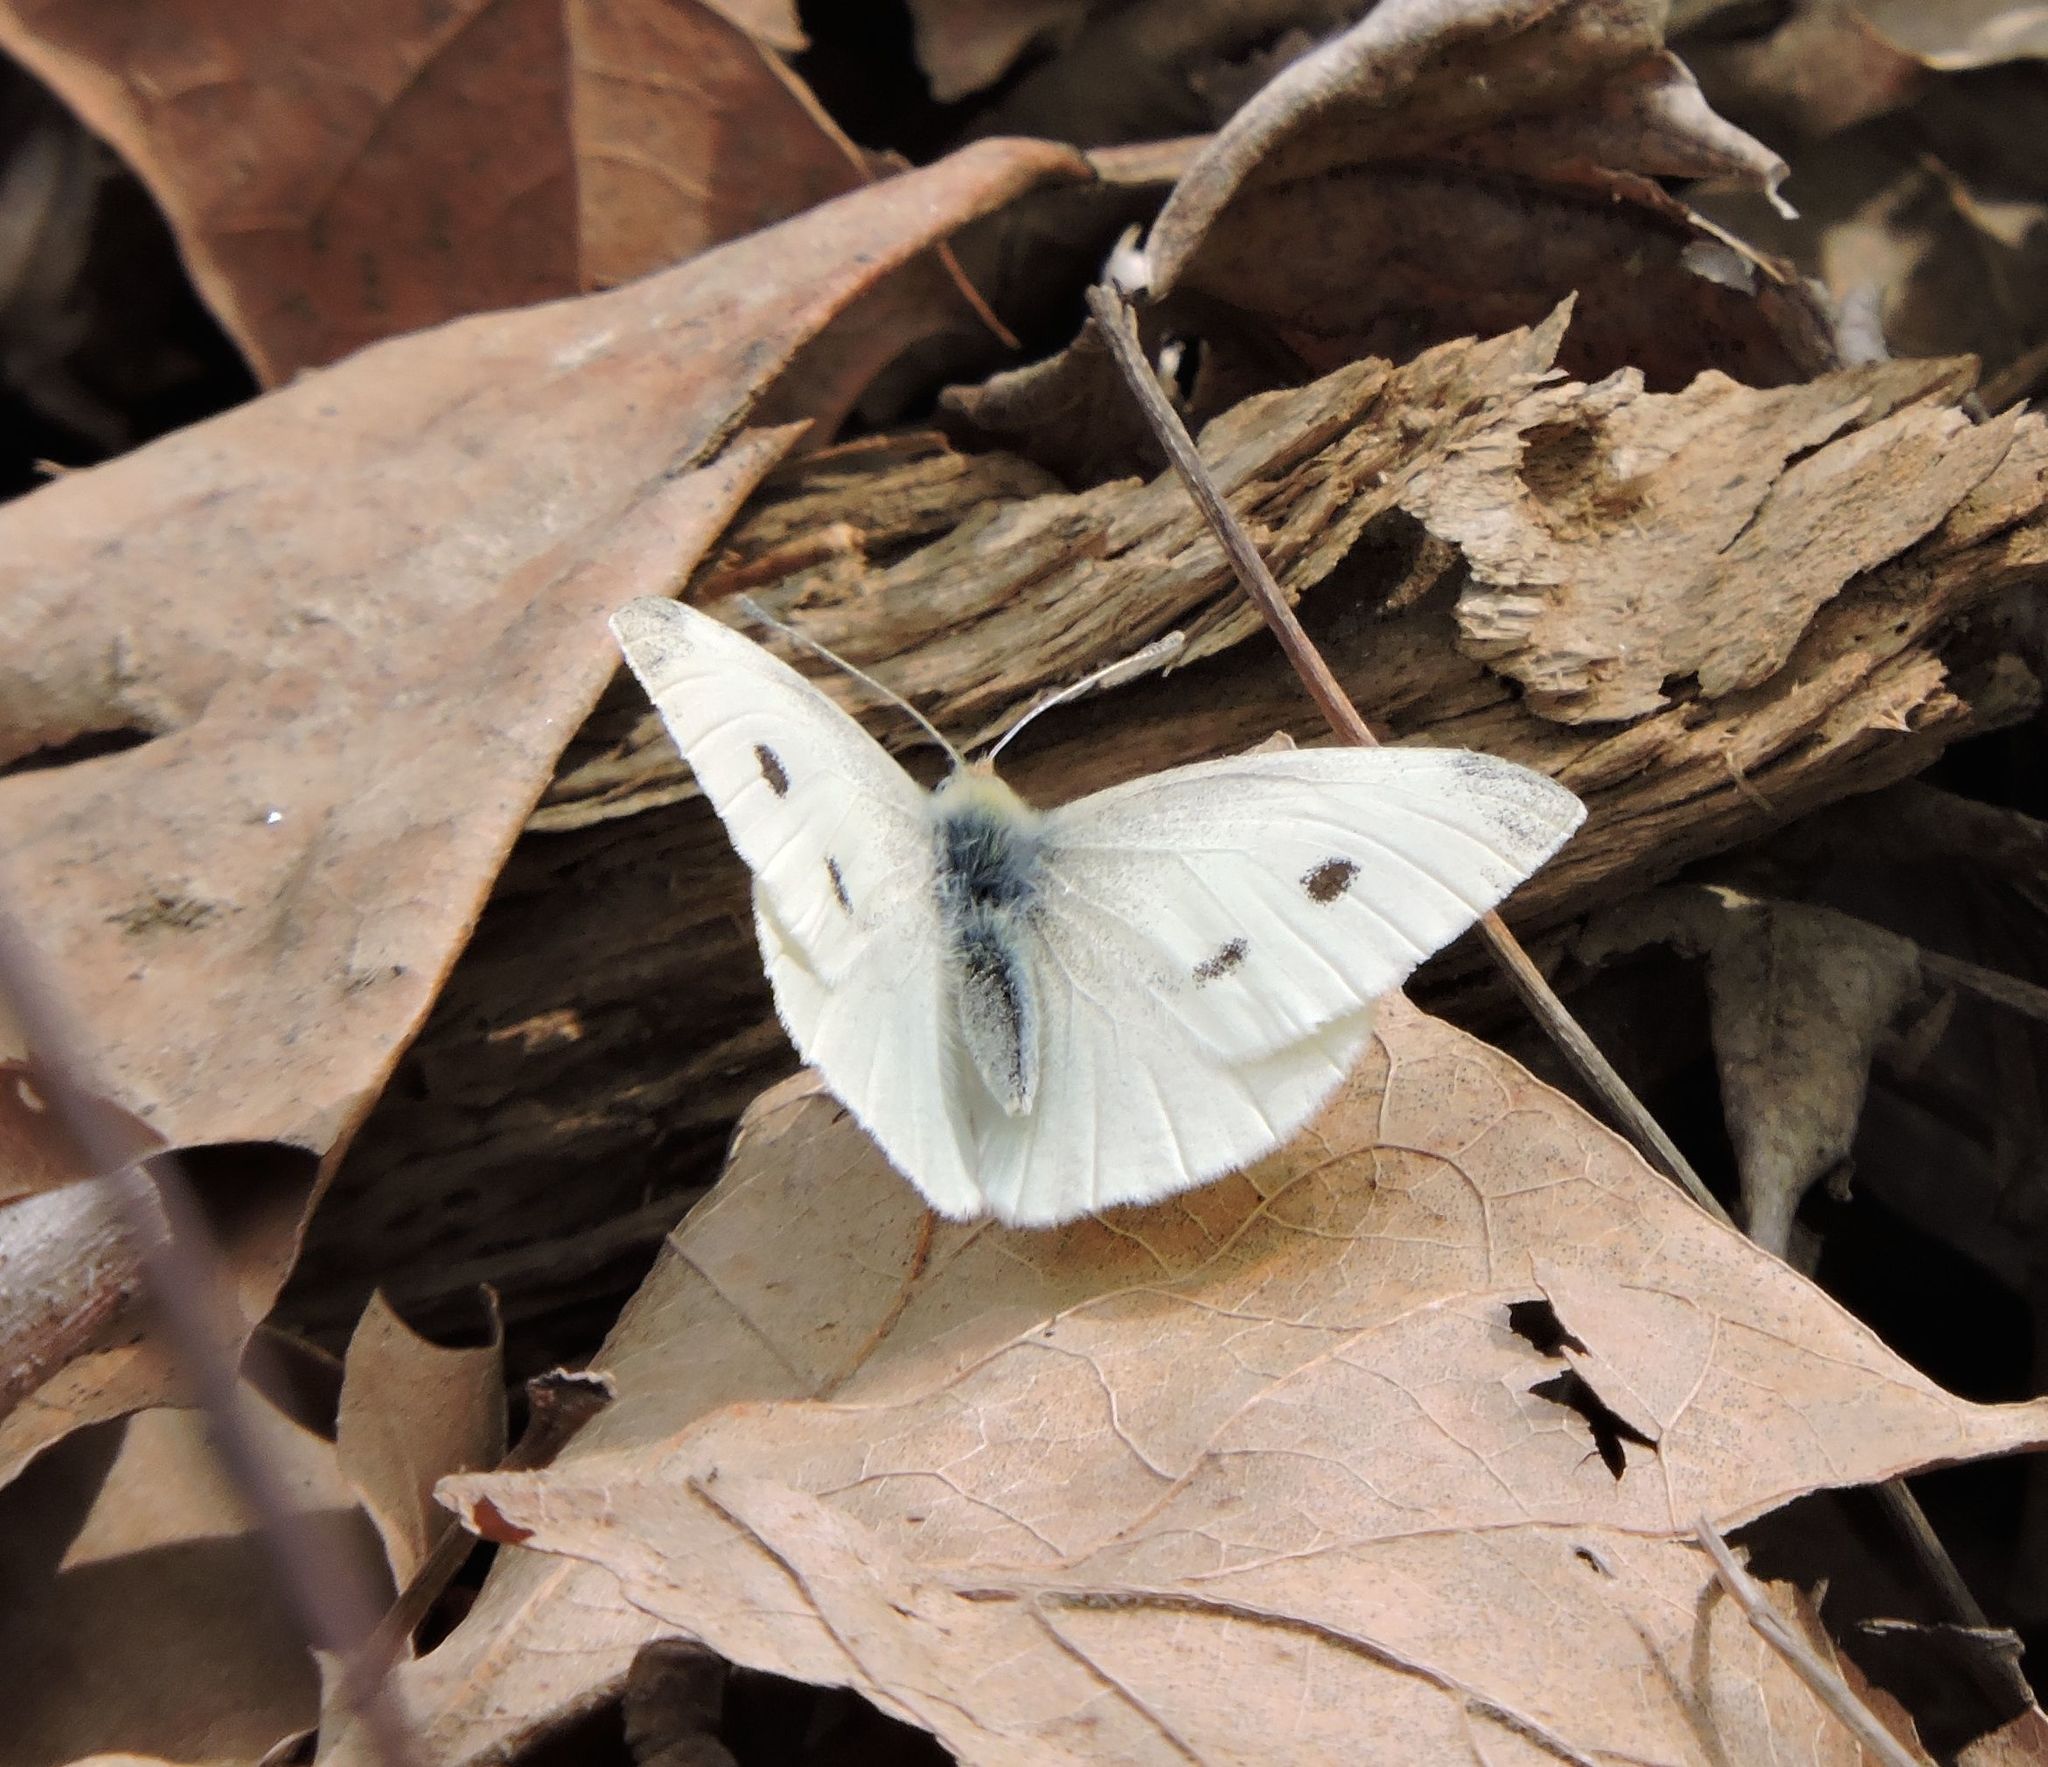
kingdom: Animalia
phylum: Arthropoda
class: Insecta
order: Lepidoptera
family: Pieridae
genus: Pieris
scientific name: Pieris rapae
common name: Small white
